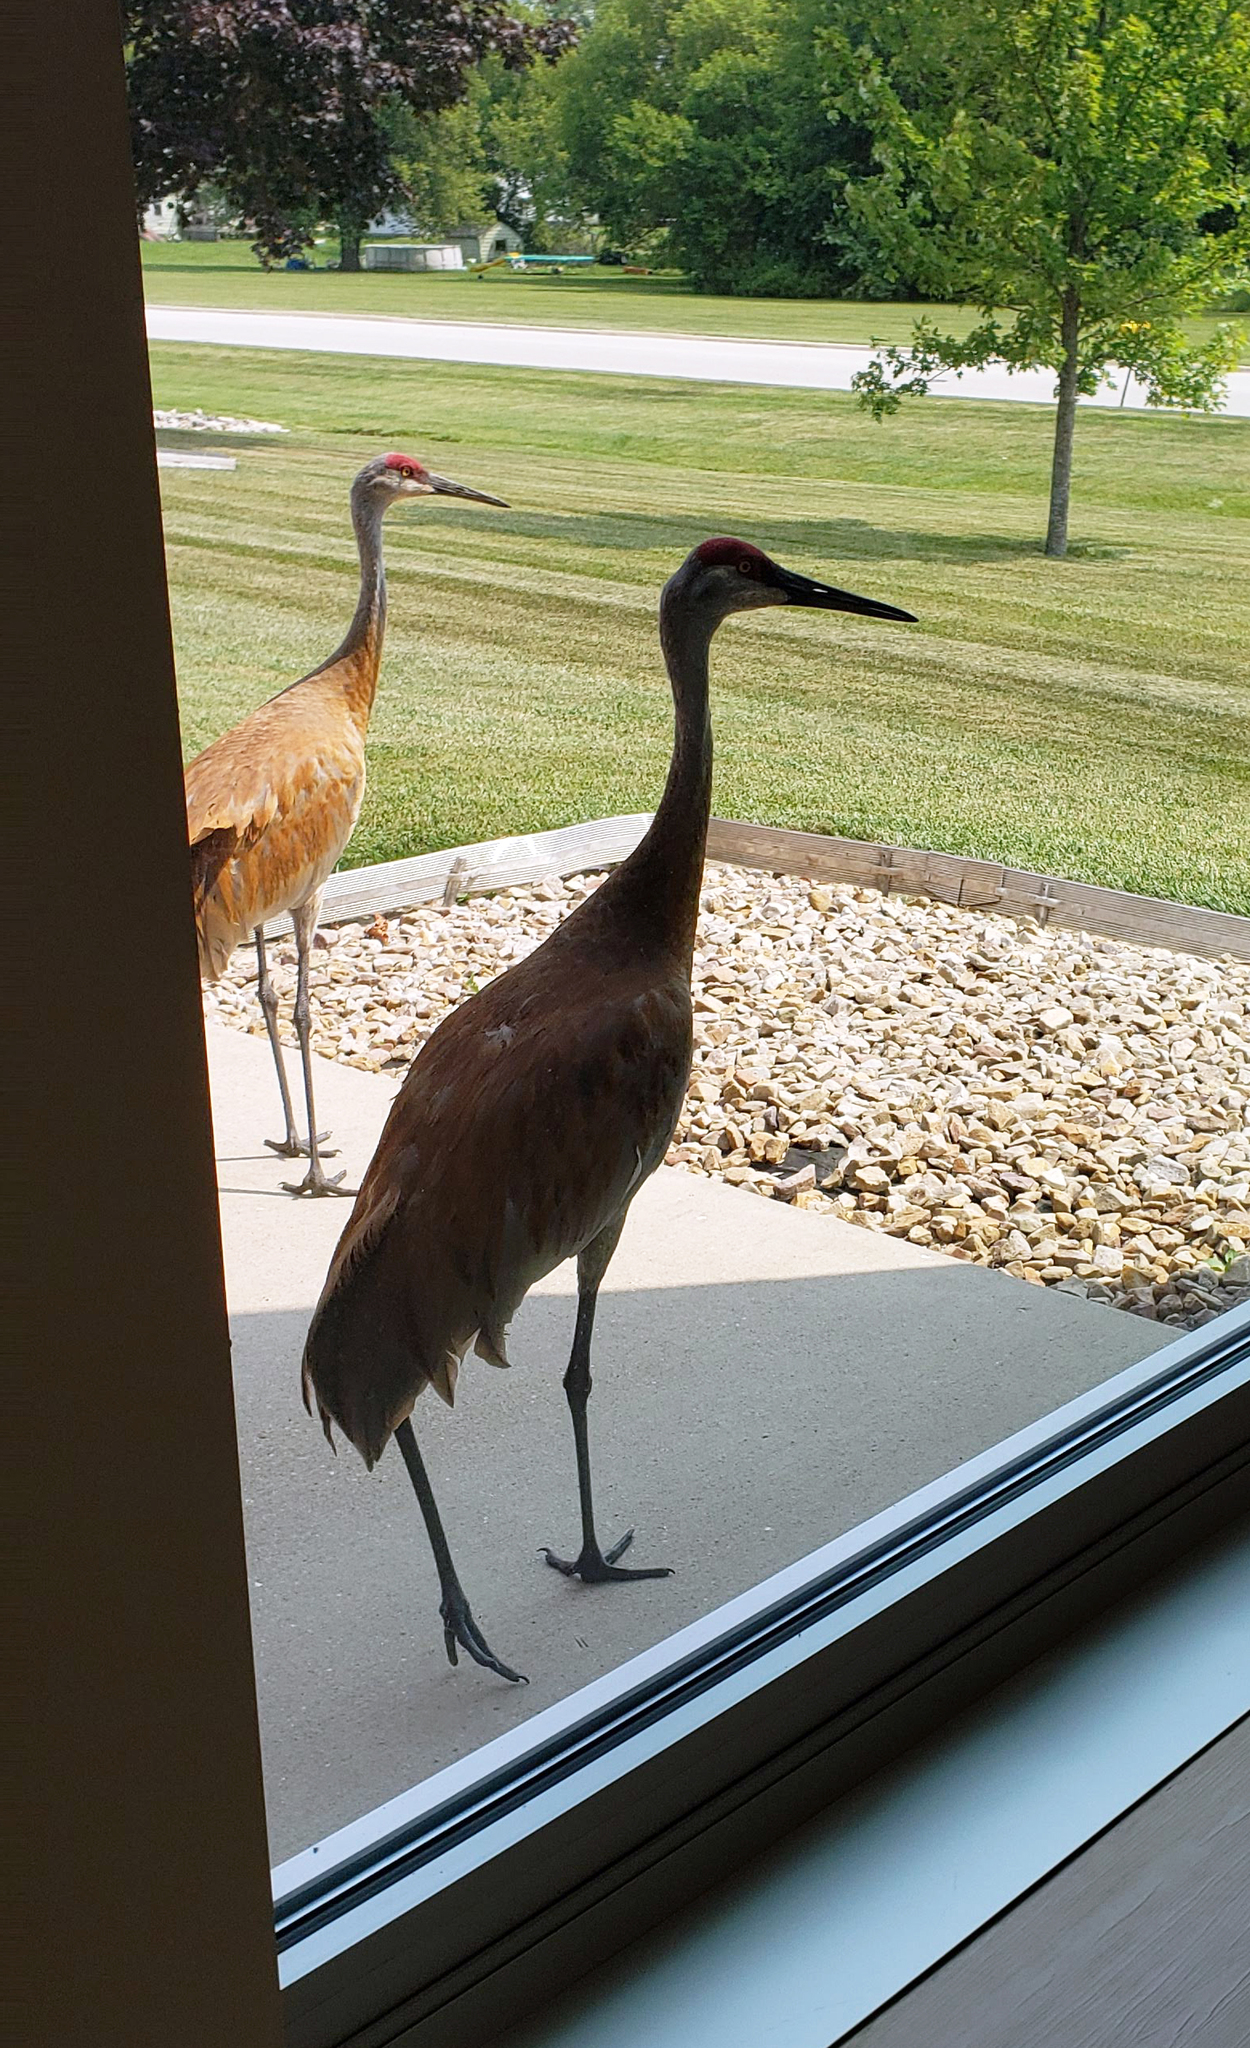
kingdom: Animalia
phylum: Chordata
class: Aves
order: Gruiformes
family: Gruidae
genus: Grus
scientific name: Grus canadensis
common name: Sandhill crane
